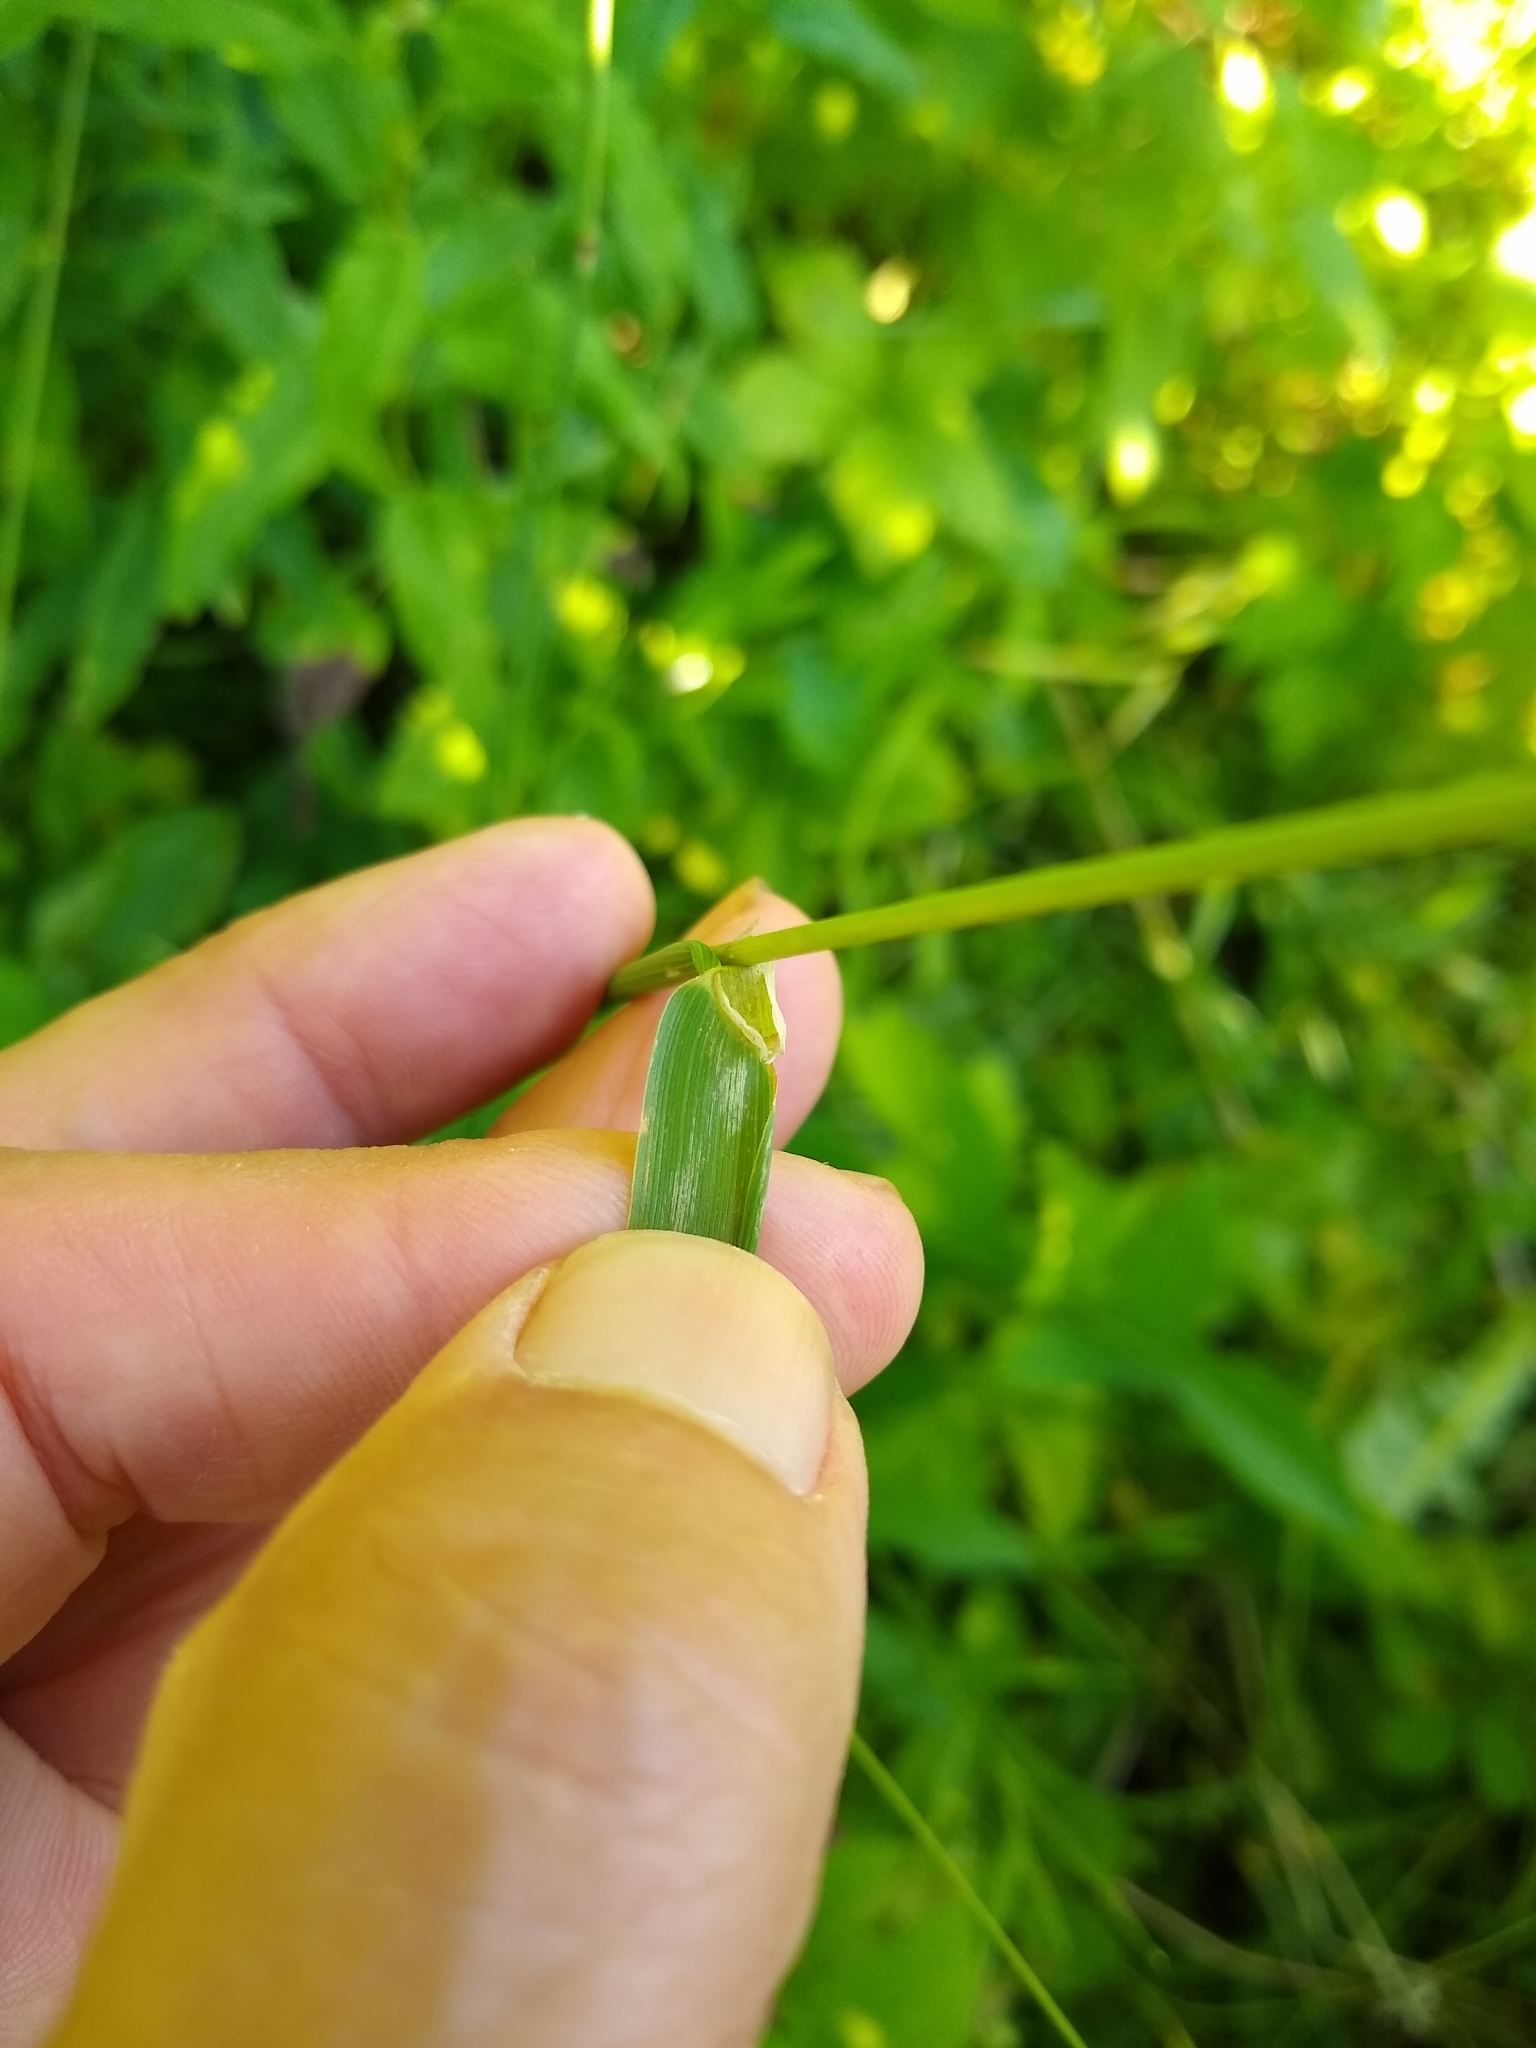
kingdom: Plantae
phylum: Tracheophyta
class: Liliopsida
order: Poales
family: Poaceae
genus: Phleum
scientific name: Phleum pratense
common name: Timothy grass
